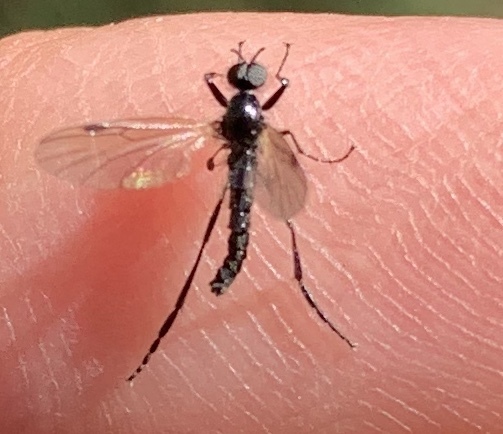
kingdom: Animalia
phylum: Arthropoda
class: Insecta
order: Diptera
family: Bibionidae
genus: Bibio
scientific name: Bibio slossonae
